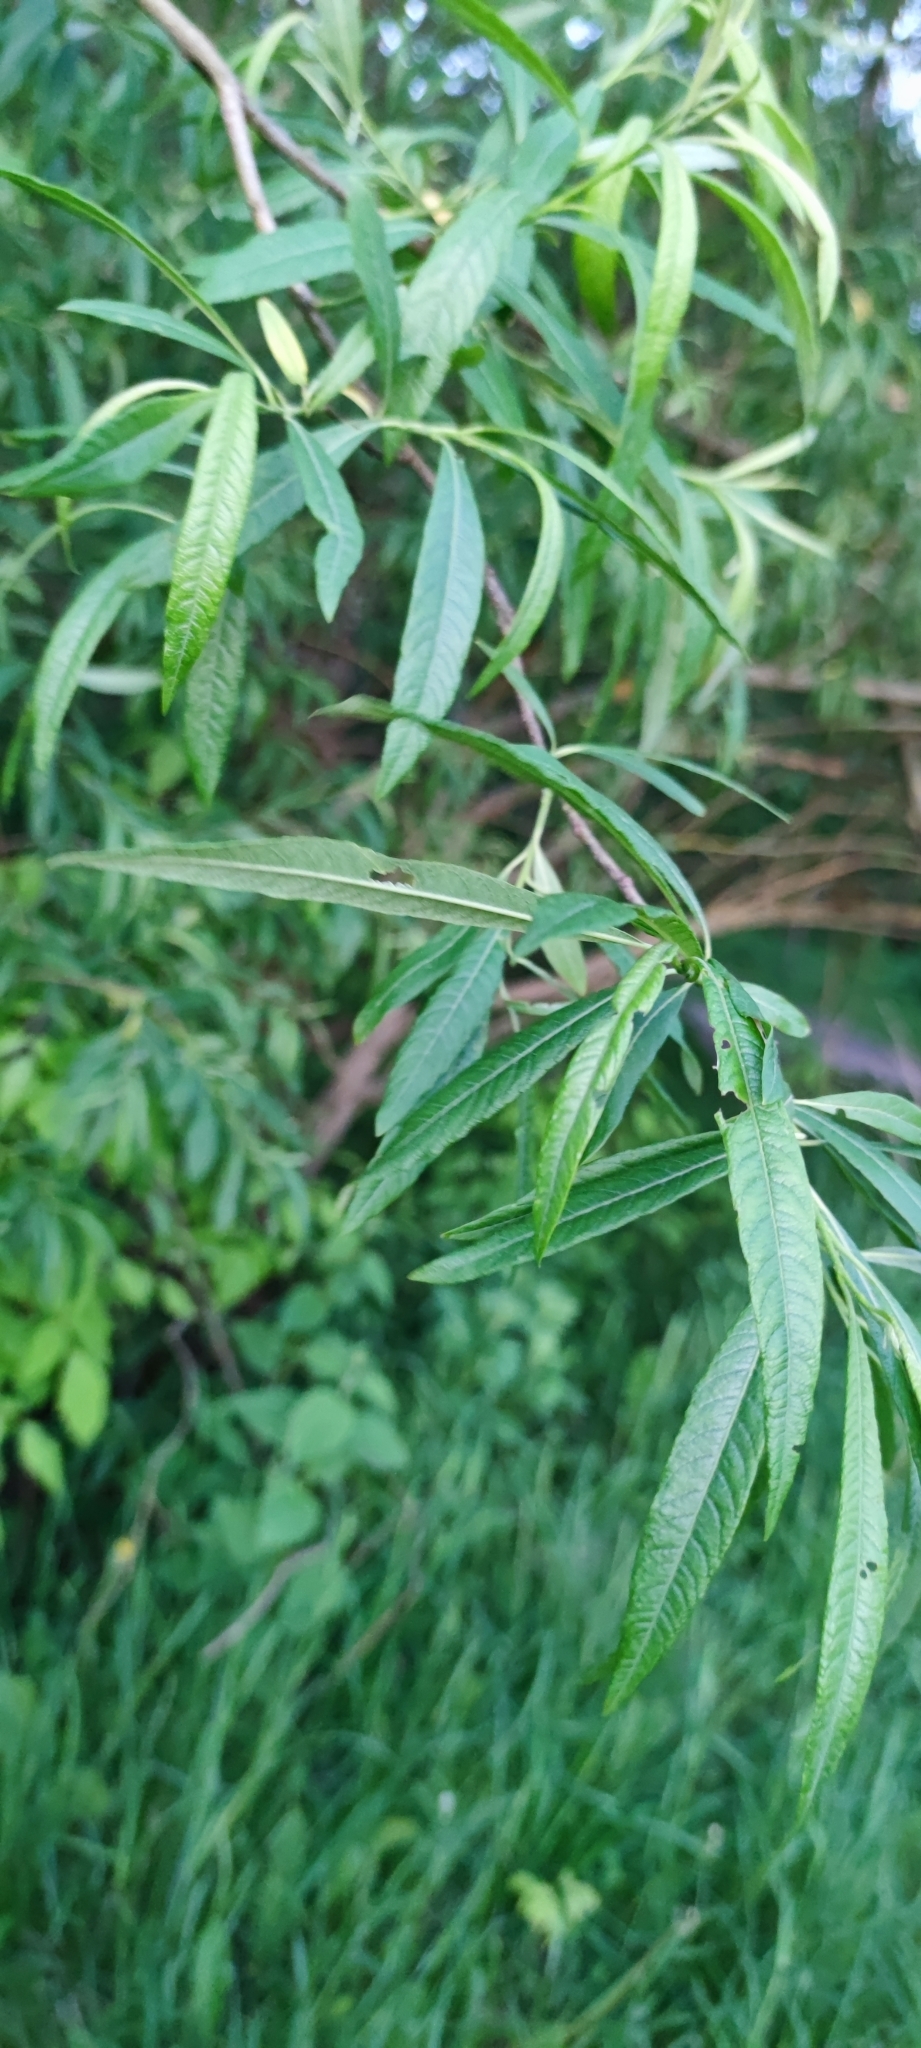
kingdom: Plantae
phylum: Tracheophyta
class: Magnoliopsida
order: Malpighiales
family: Salicaceae
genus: Salix
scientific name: Salix alba
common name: White willow
